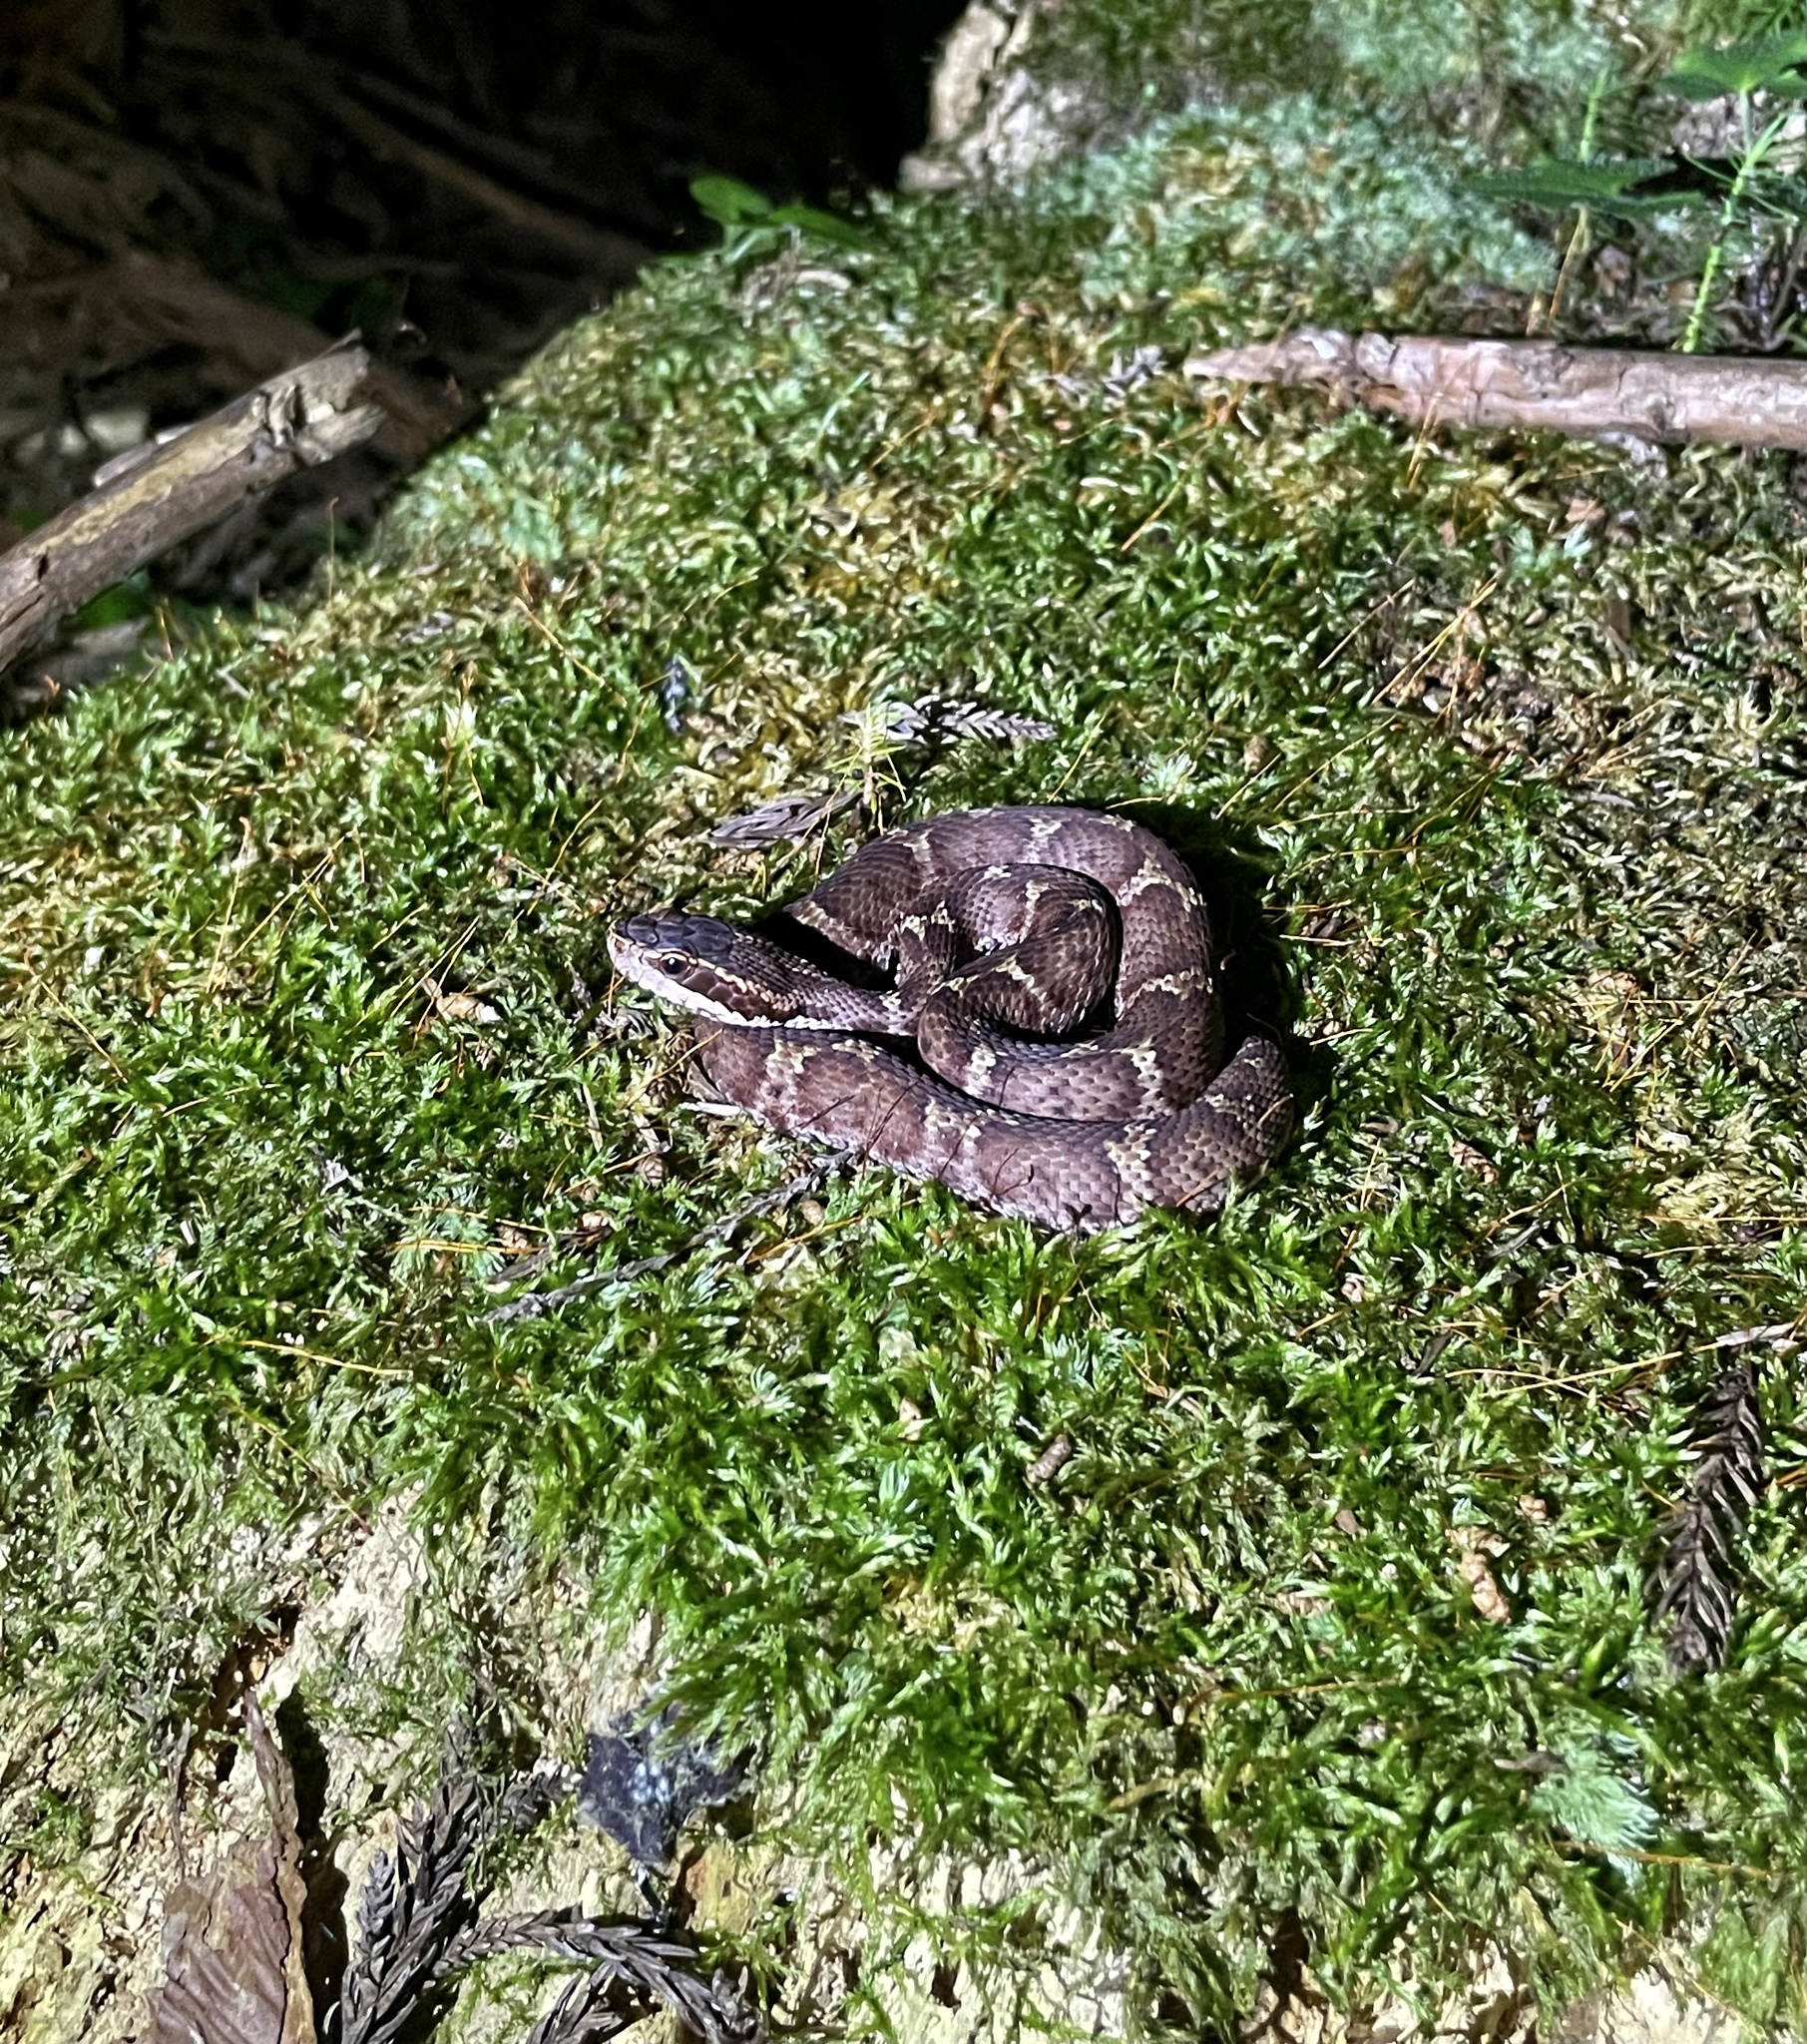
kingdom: Animalia
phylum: Chordata
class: Squamata
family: Viperidae
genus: Gloydius
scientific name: Gloydius blomhoffii
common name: Mamushi
